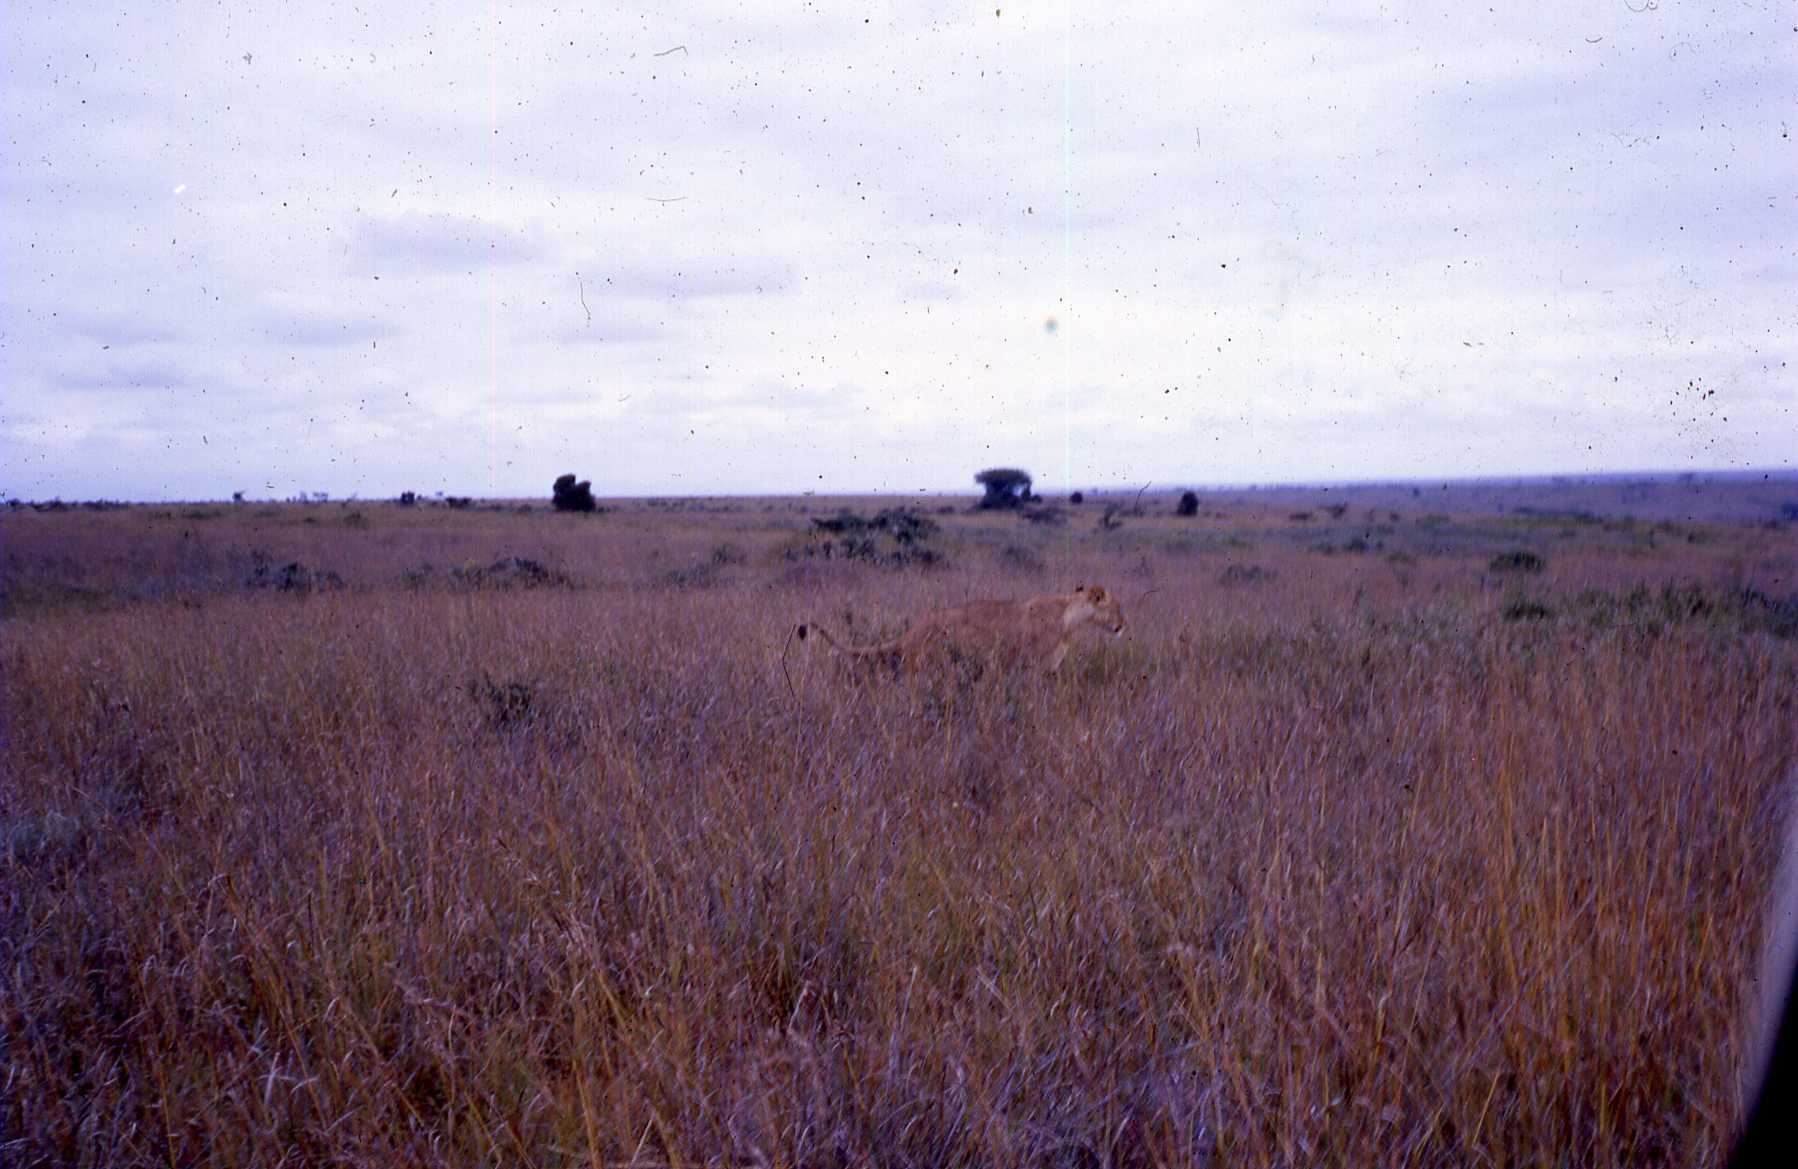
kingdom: Animalia
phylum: Chordata
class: Mammalia
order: Carnivora
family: Felidae
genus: Panthera
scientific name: Panthera leo
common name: Lion
